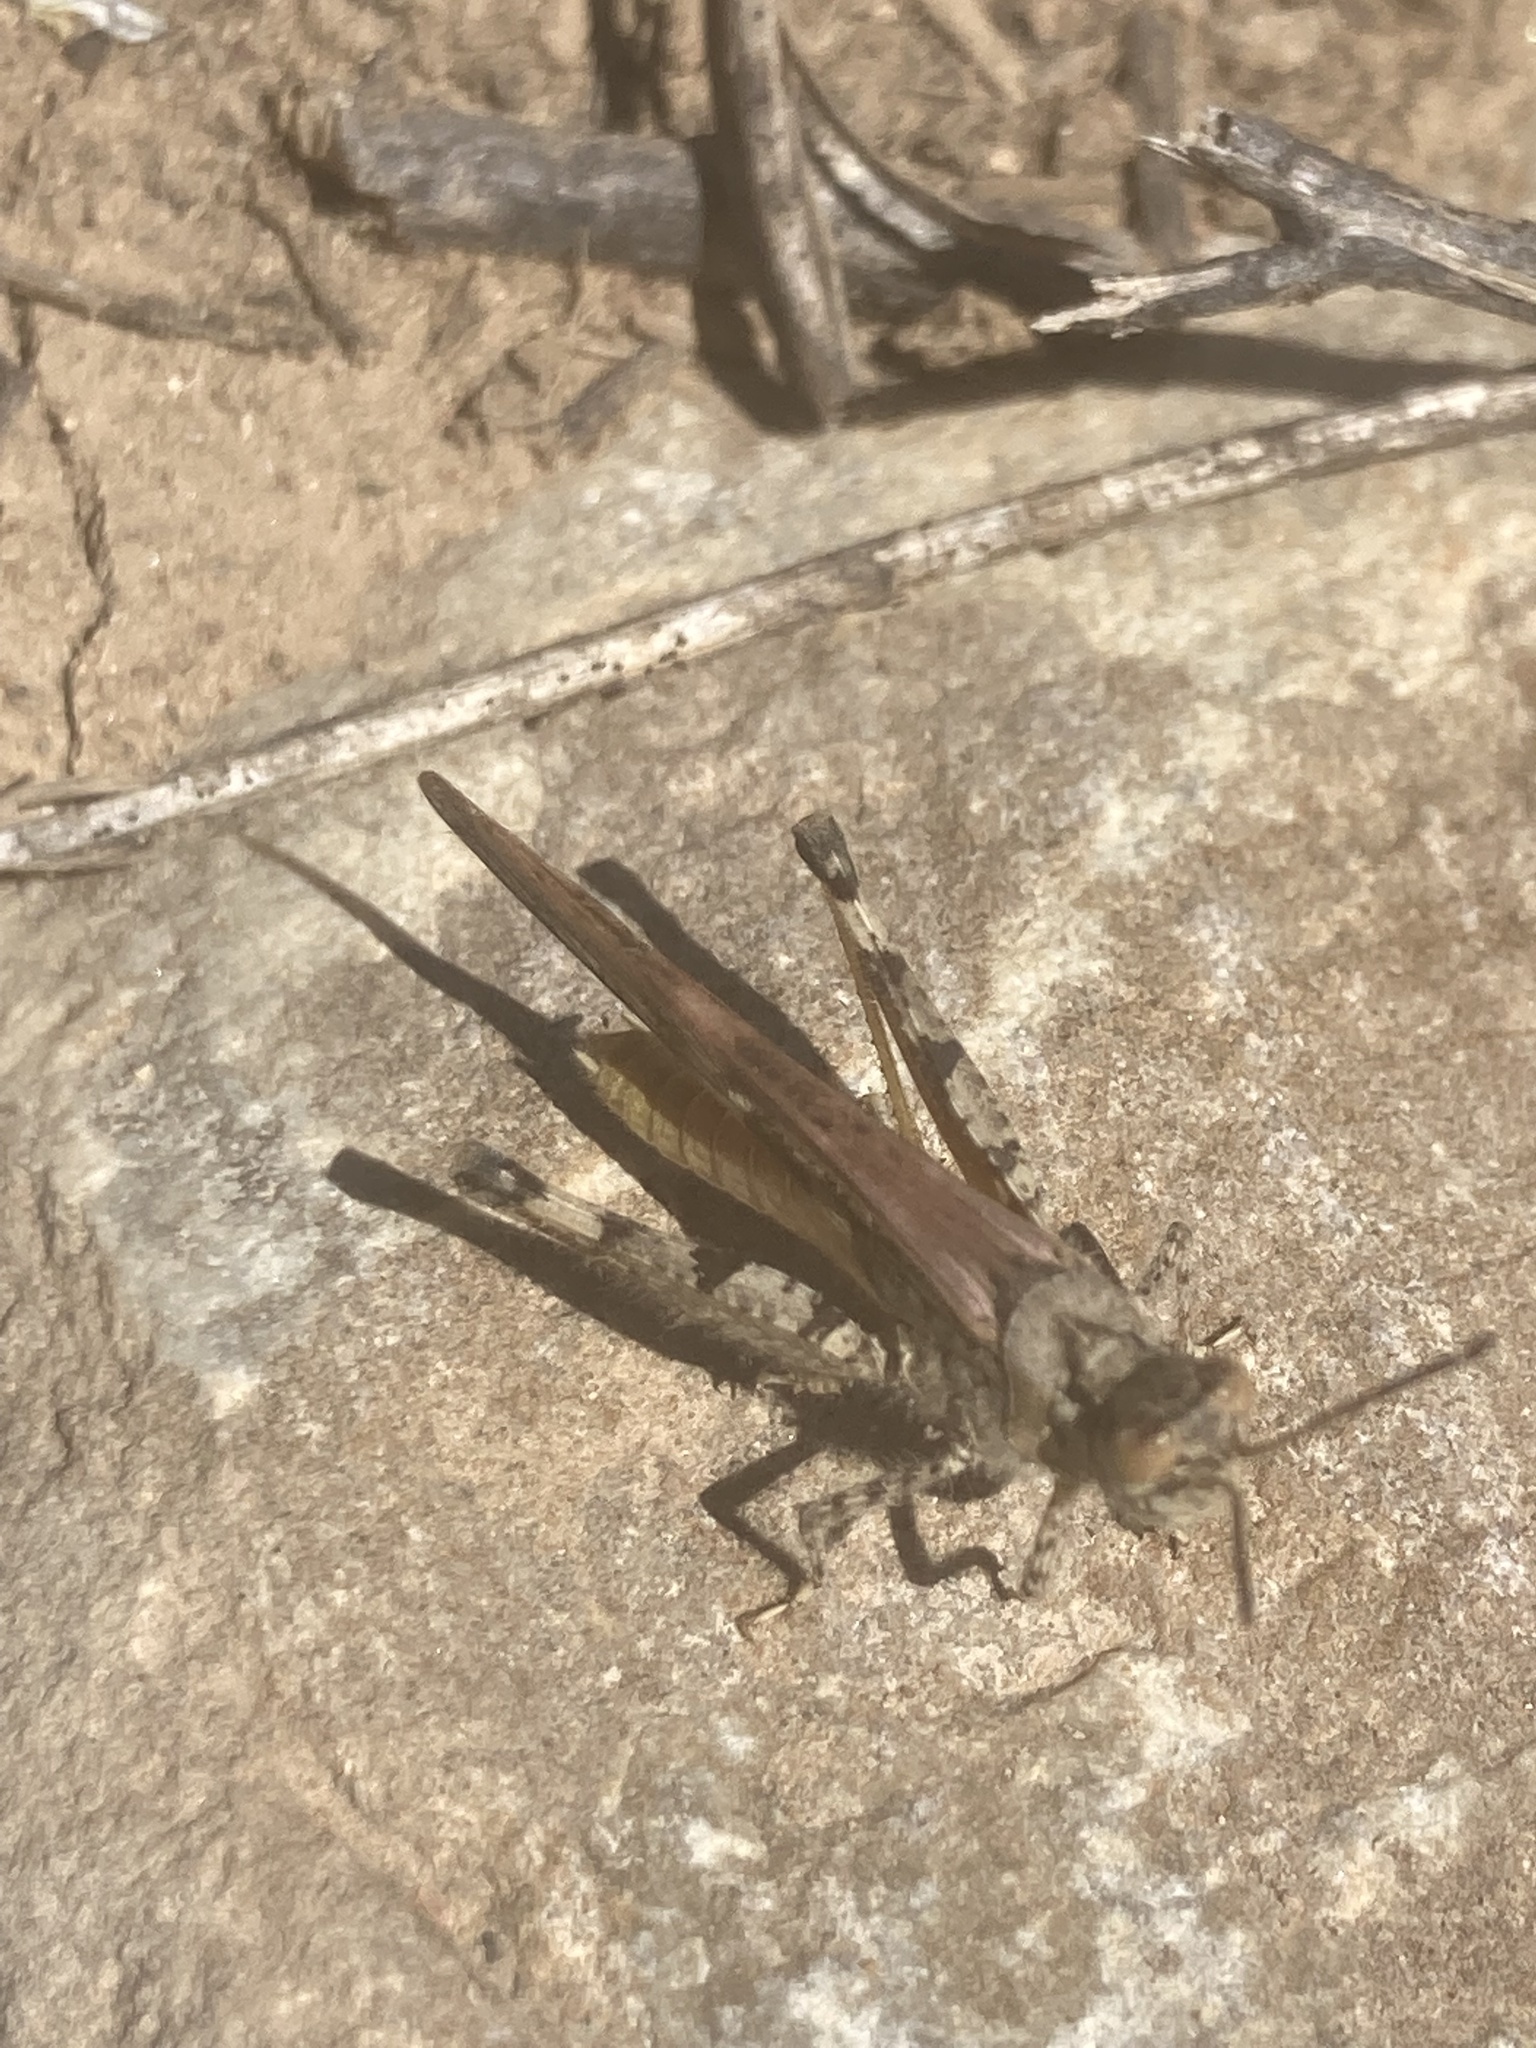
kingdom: Animalia
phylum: Arthropoda
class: Insecta
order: Orthoptera
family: Acrididae
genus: Acrotylus
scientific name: Acrotylus patruelis
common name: Slender burrowing grasshopper
